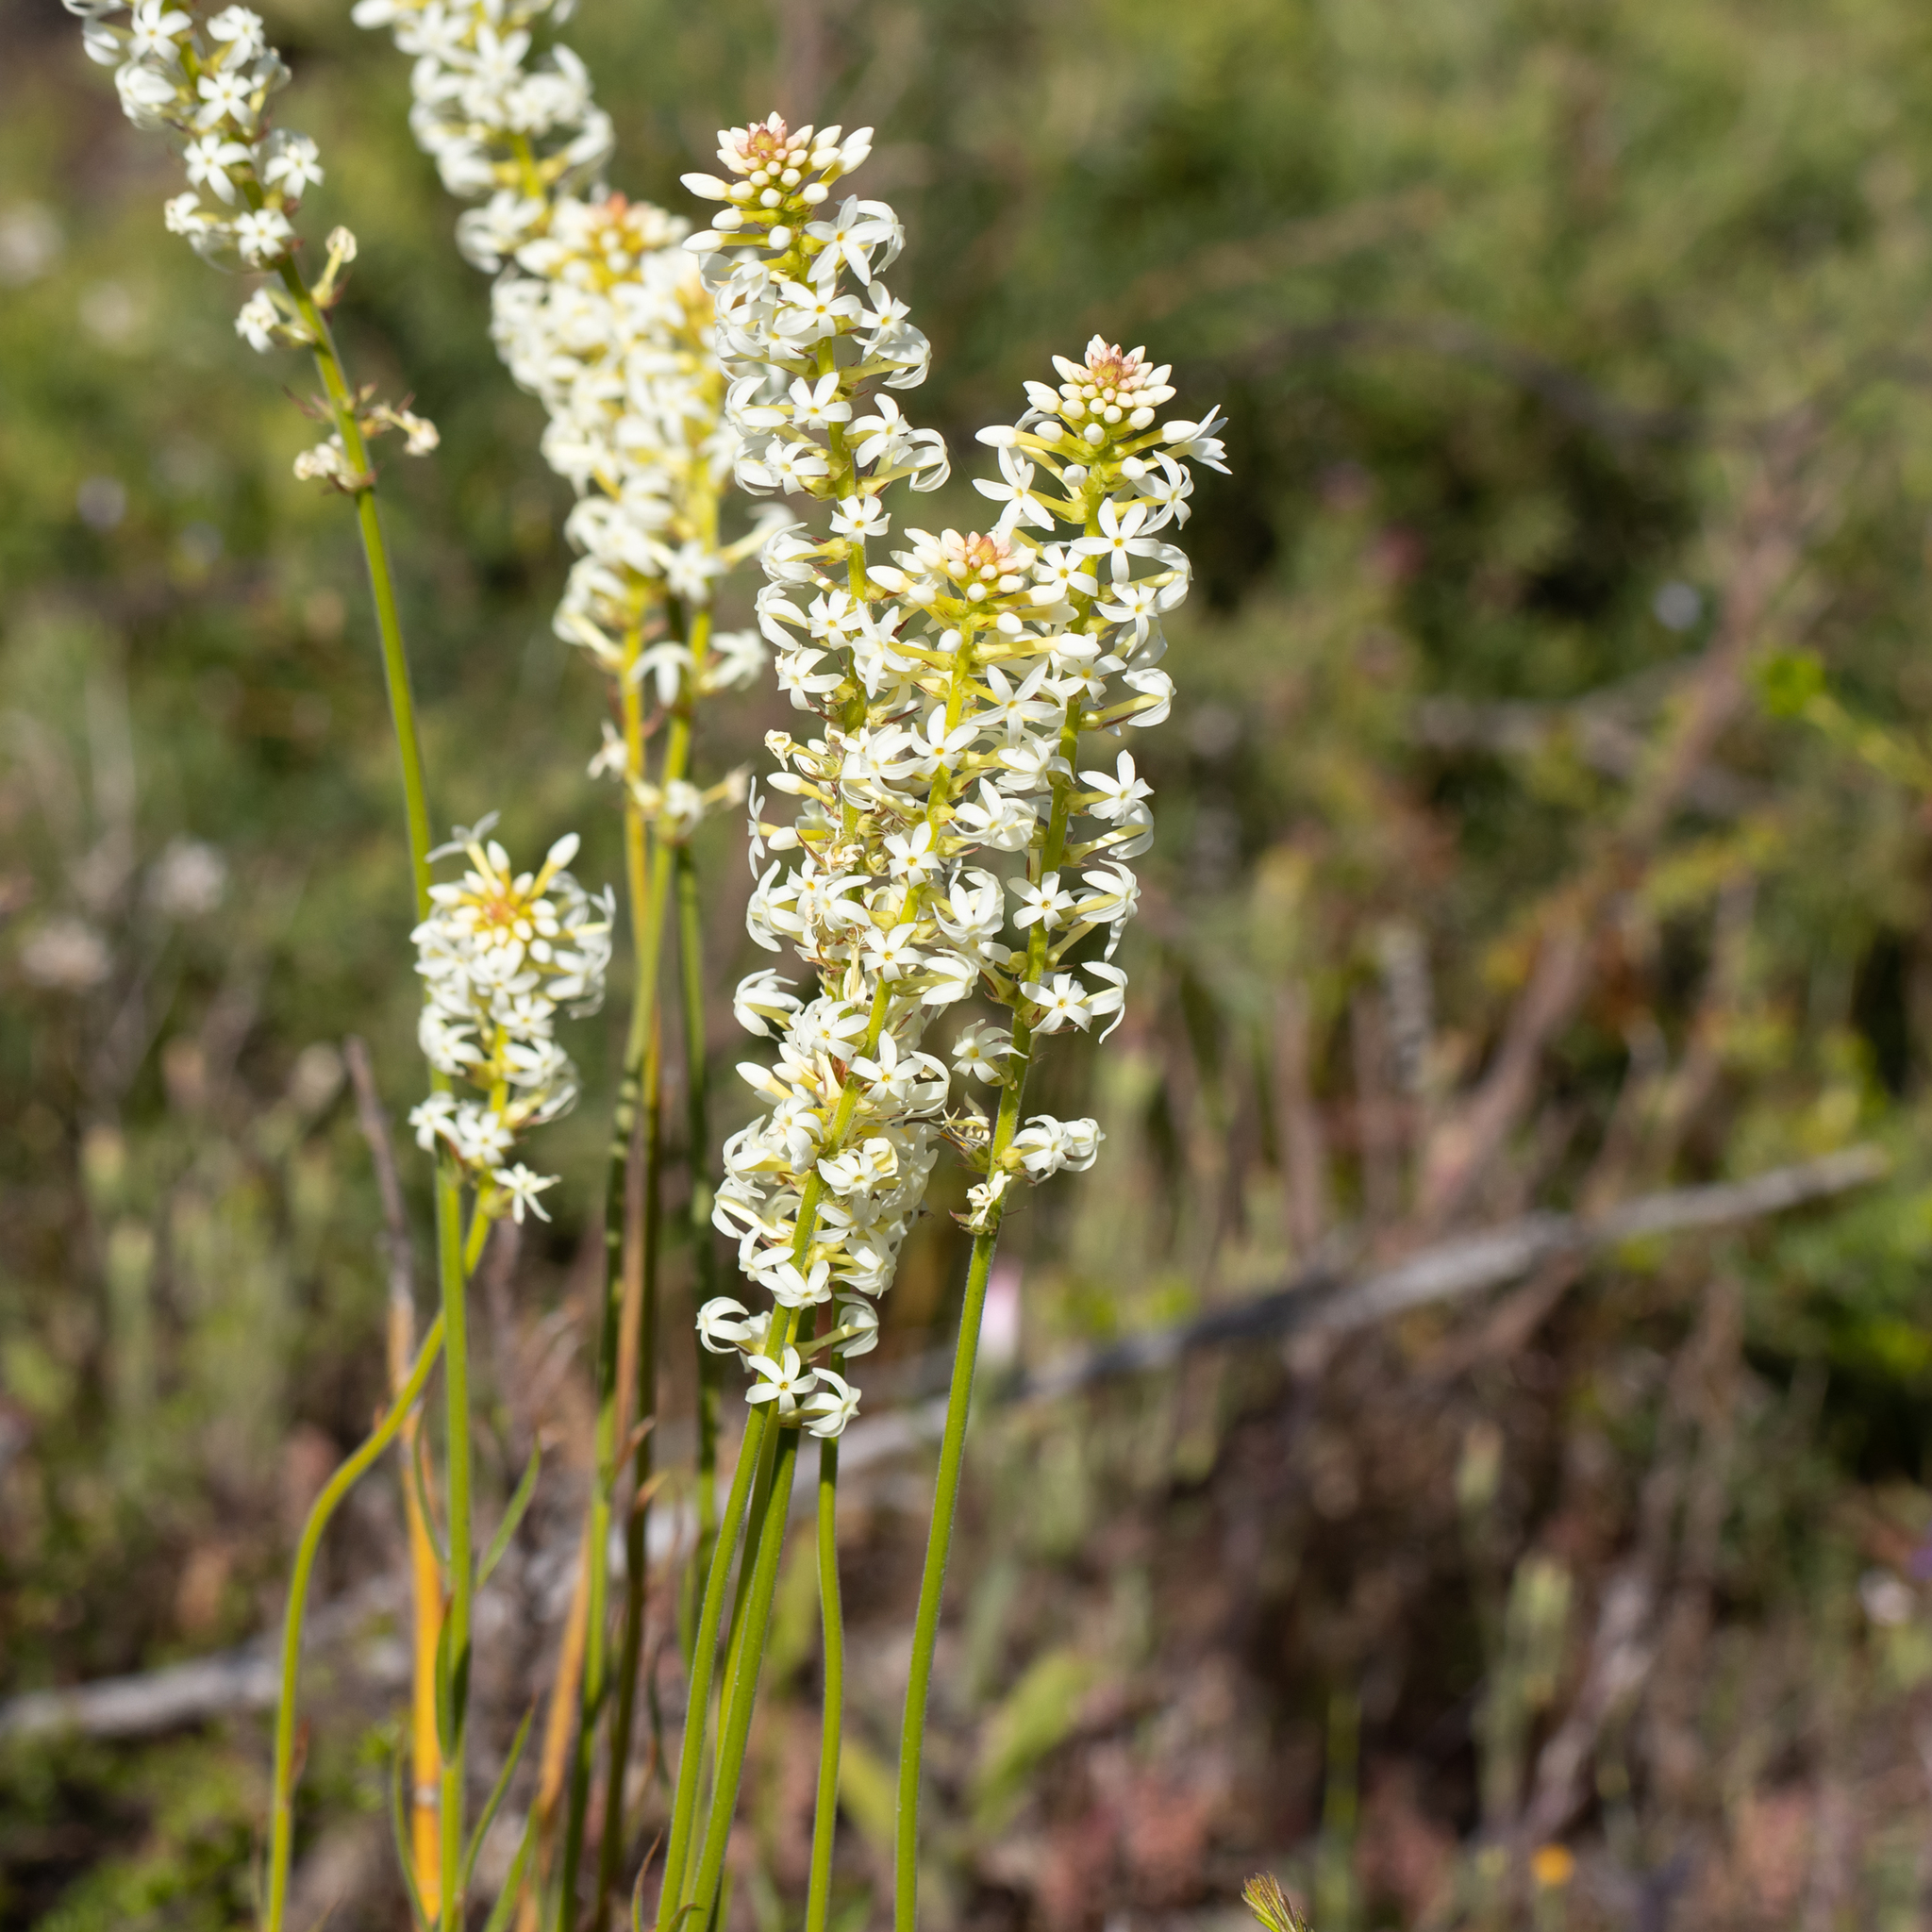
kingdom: Plantae
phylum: Tracheophyta
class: Magnoliopsida
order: Celastrales
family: Celastraceae
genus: Stackhousia
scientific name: Stackhousia monogyna
